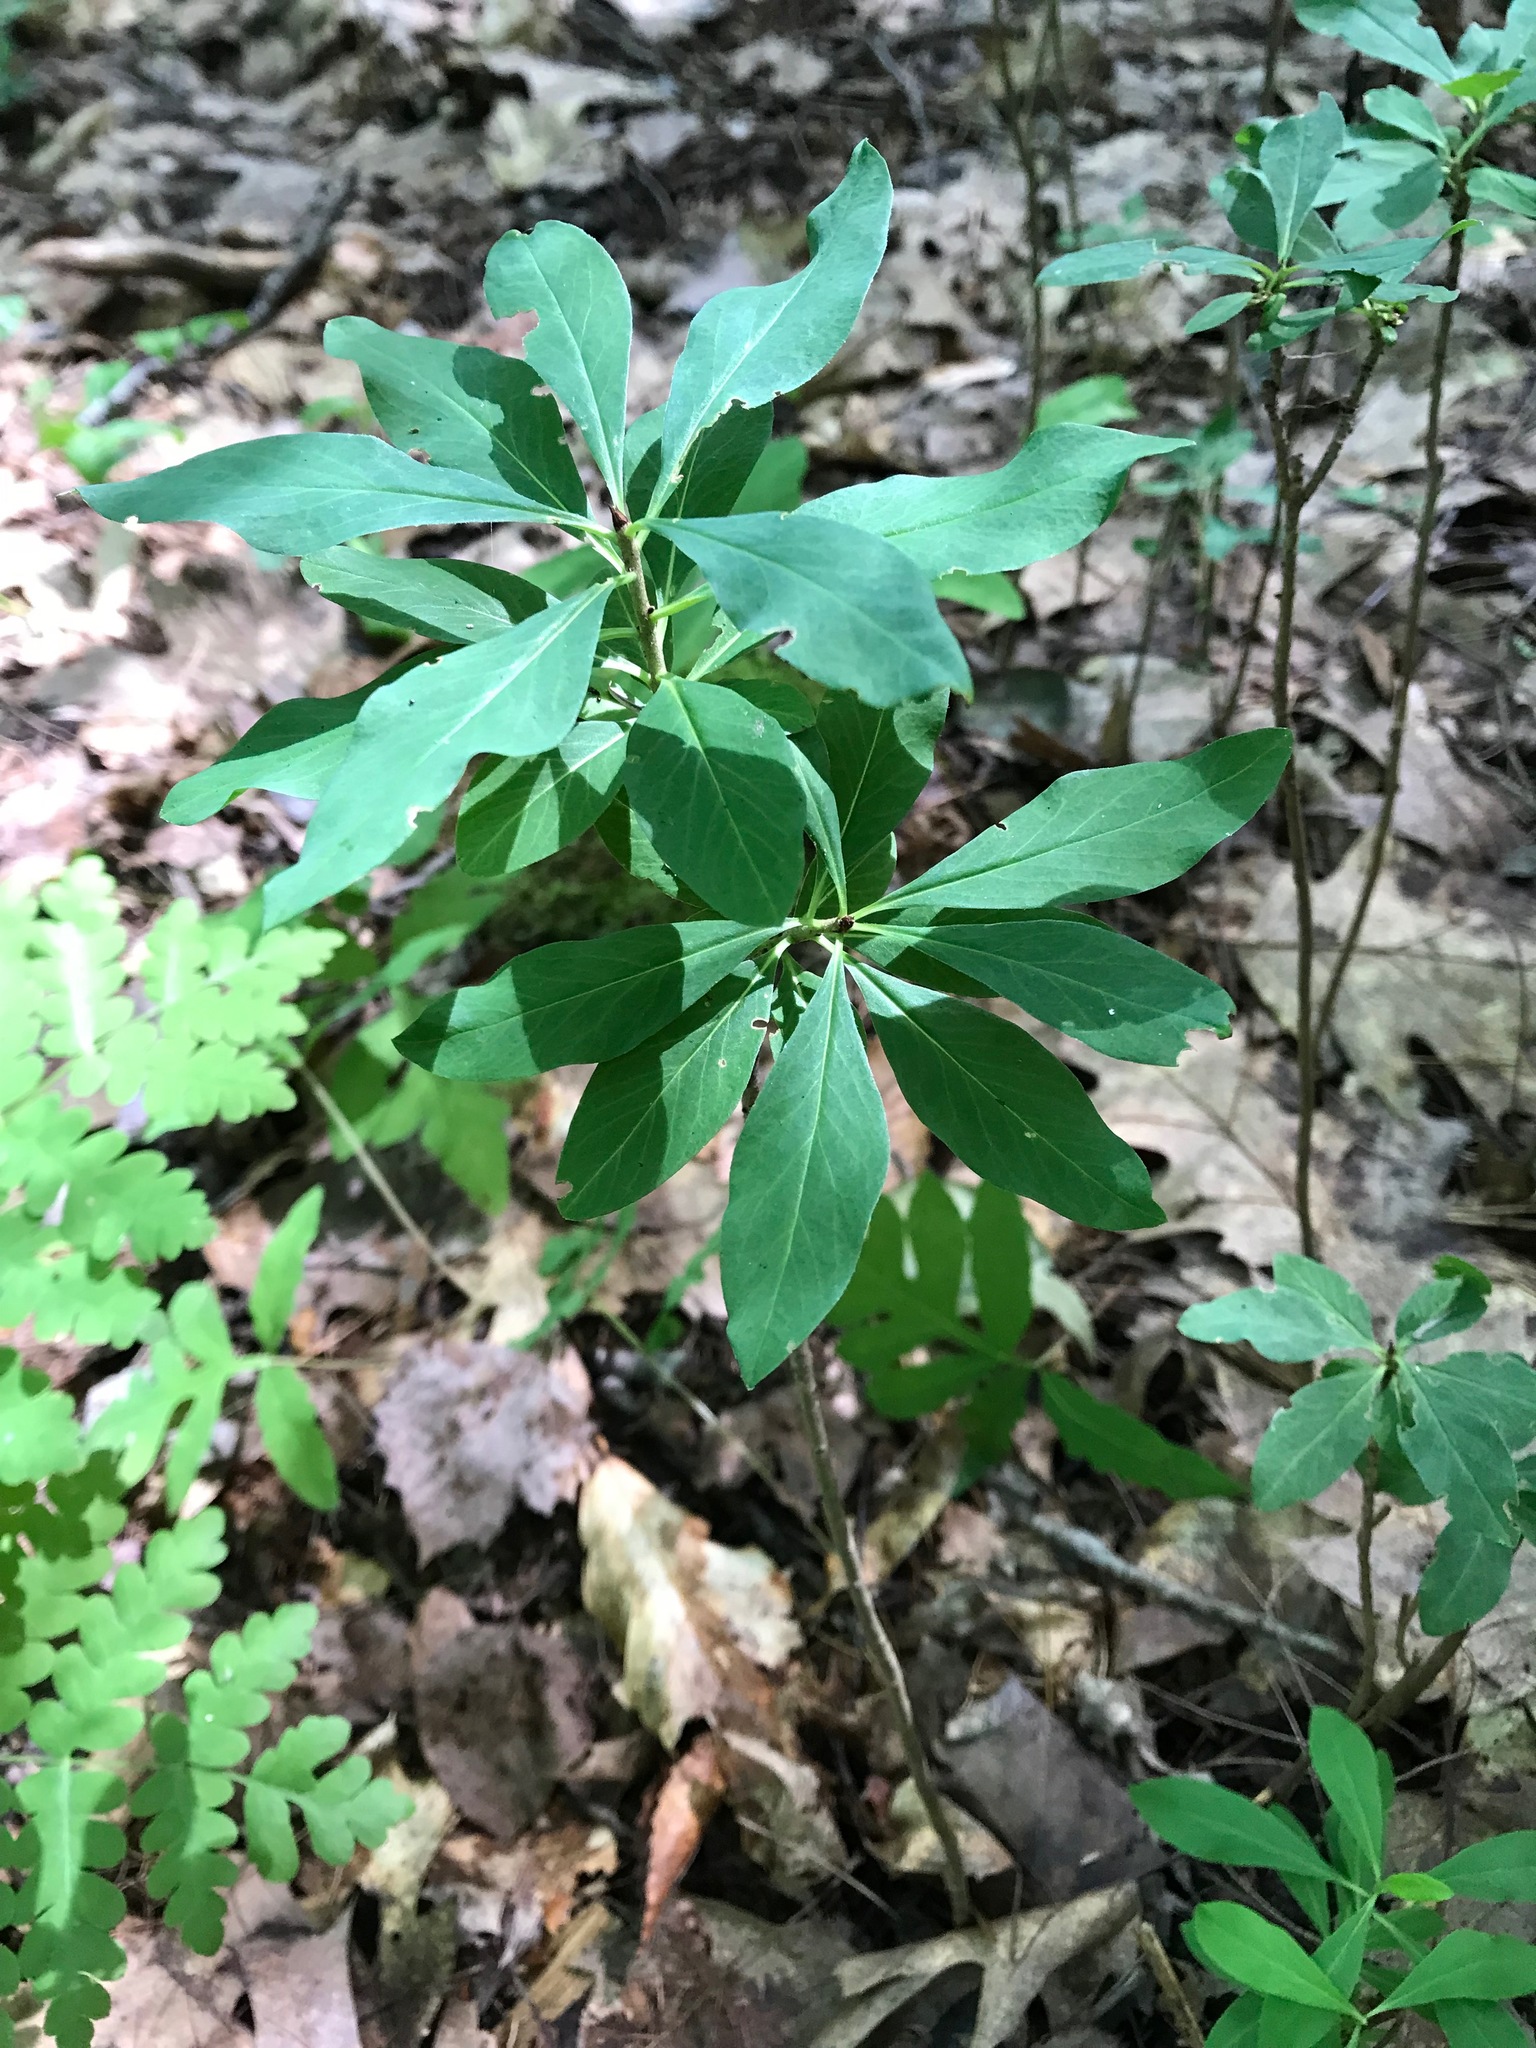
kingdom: Plantae
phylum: Tracheophyta
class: Magnoliopsida
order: Malvales
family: Thymelaeaceae
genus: Daphne
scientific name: Daphne mezereum
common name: Mezereon
